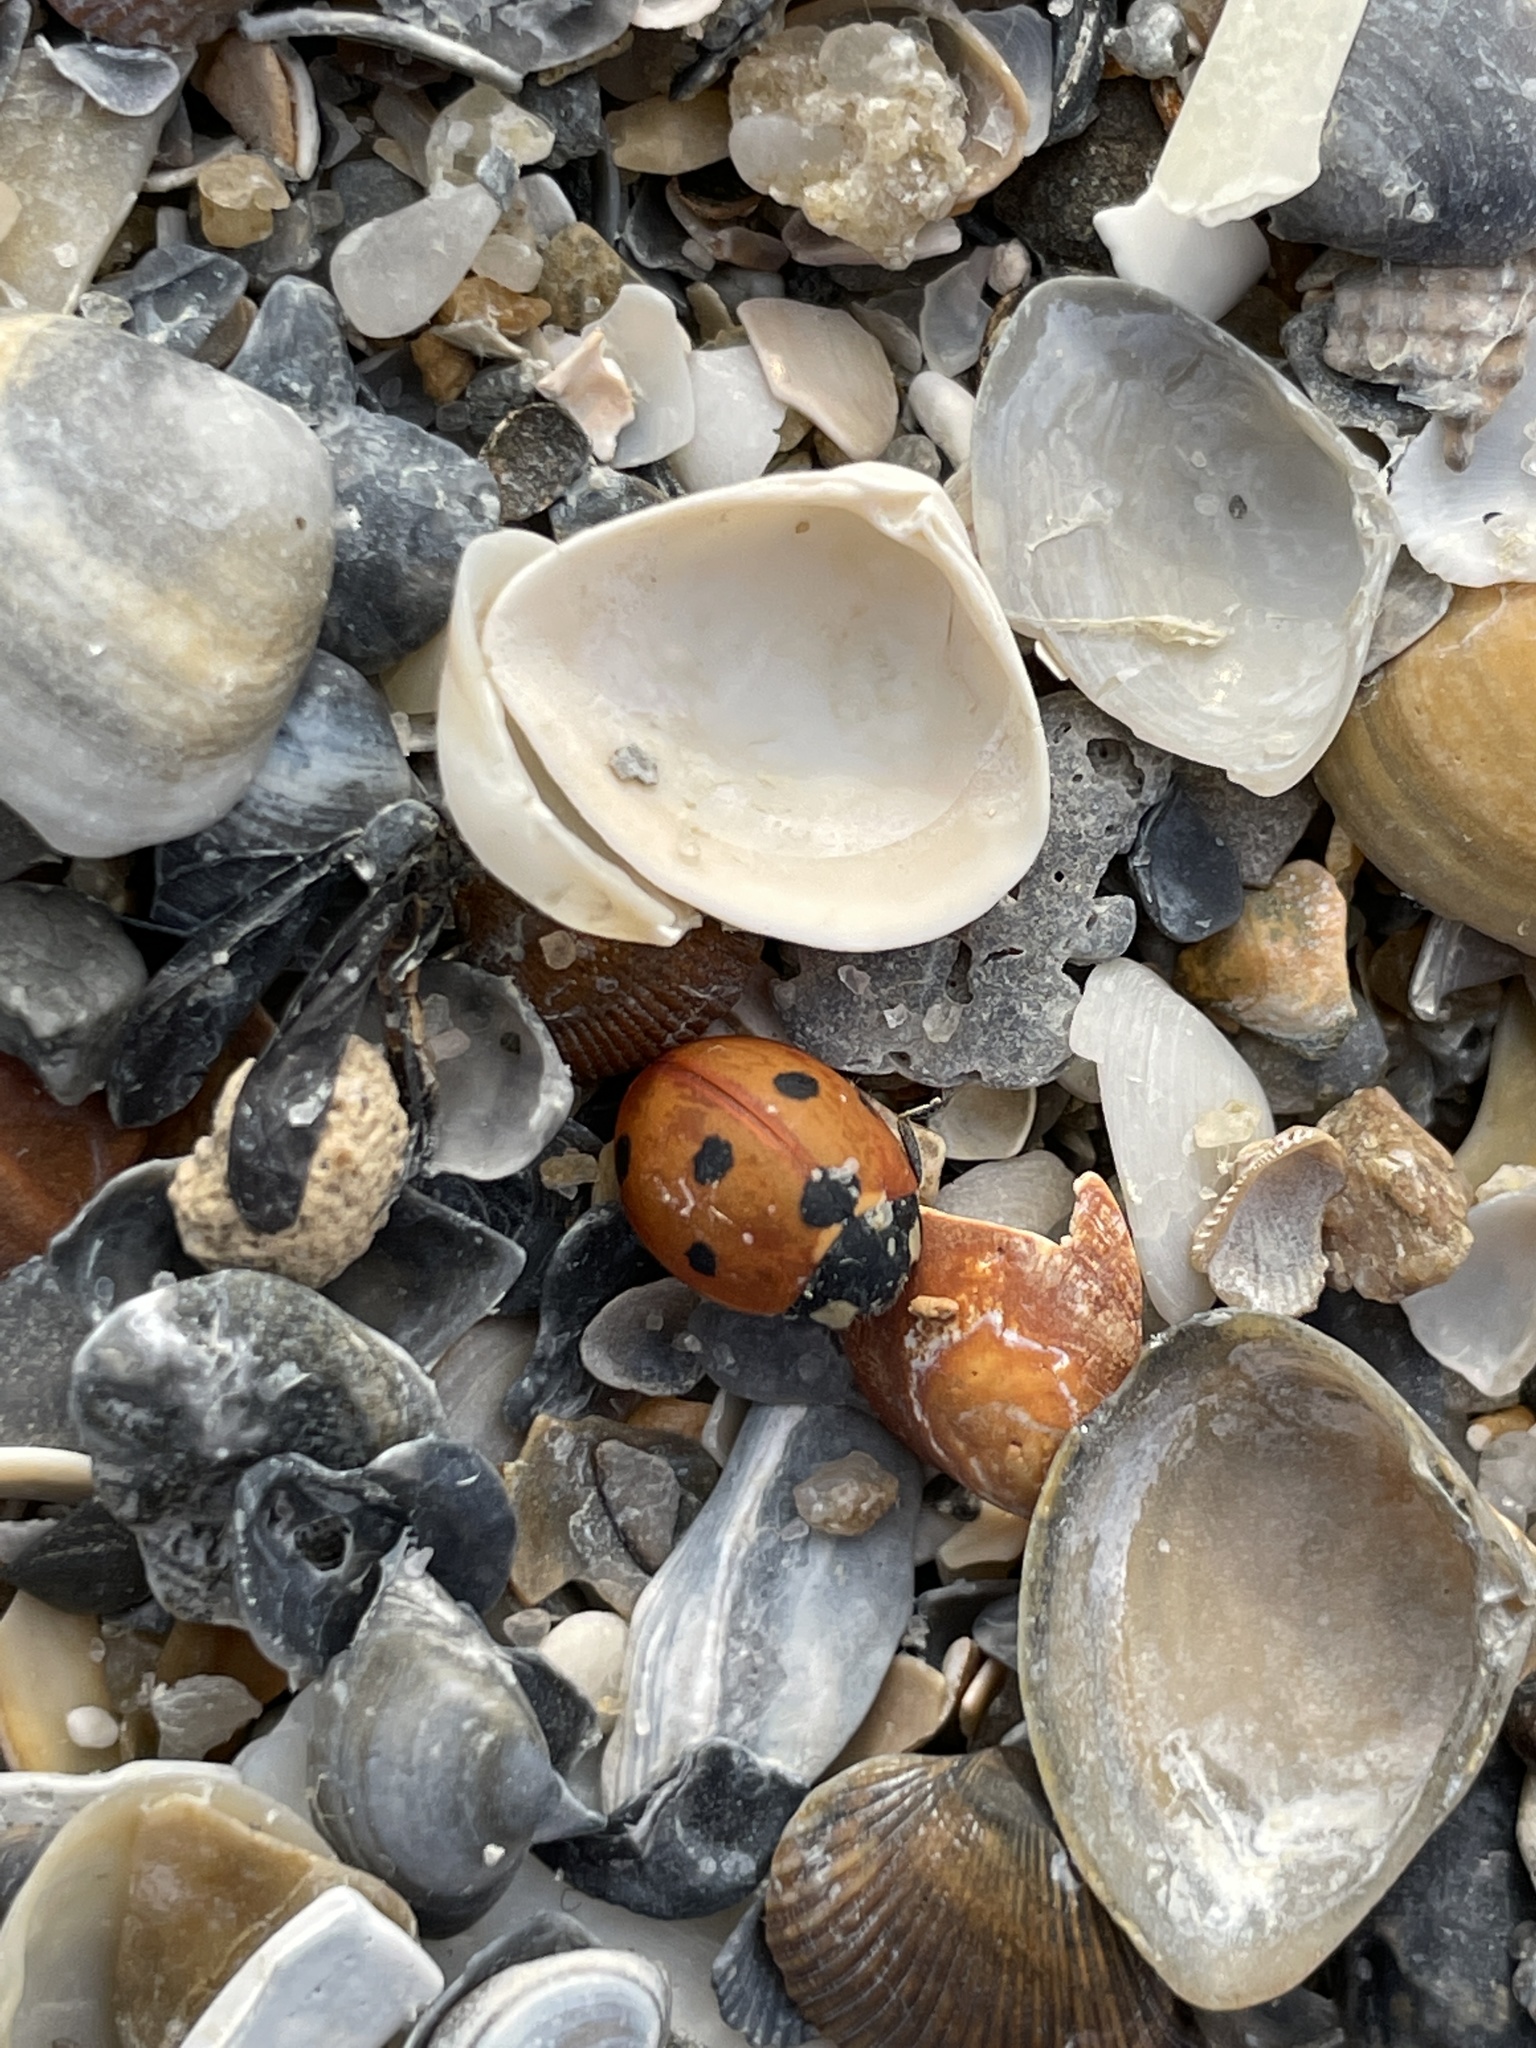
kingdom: Animalia
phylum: Arthropoda
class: Insecta
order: Coleoptera
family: Coccinellidae
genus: Coccinella
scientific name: Coccinella septempunctata
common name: Sevenspotted lady beetle
